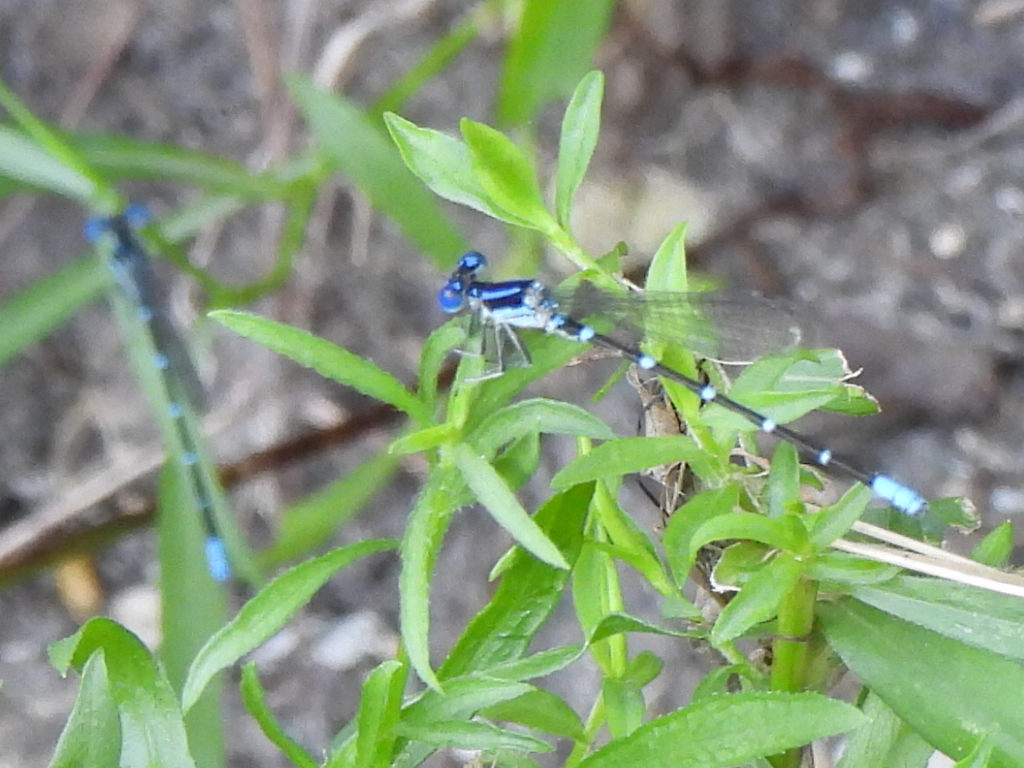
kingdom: Animalia
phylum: Arthropoda
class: Insecta
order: Odonata
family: Coenagrionidae
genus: Argia
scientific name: Argia sedula
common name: Blue-ringed dancer
